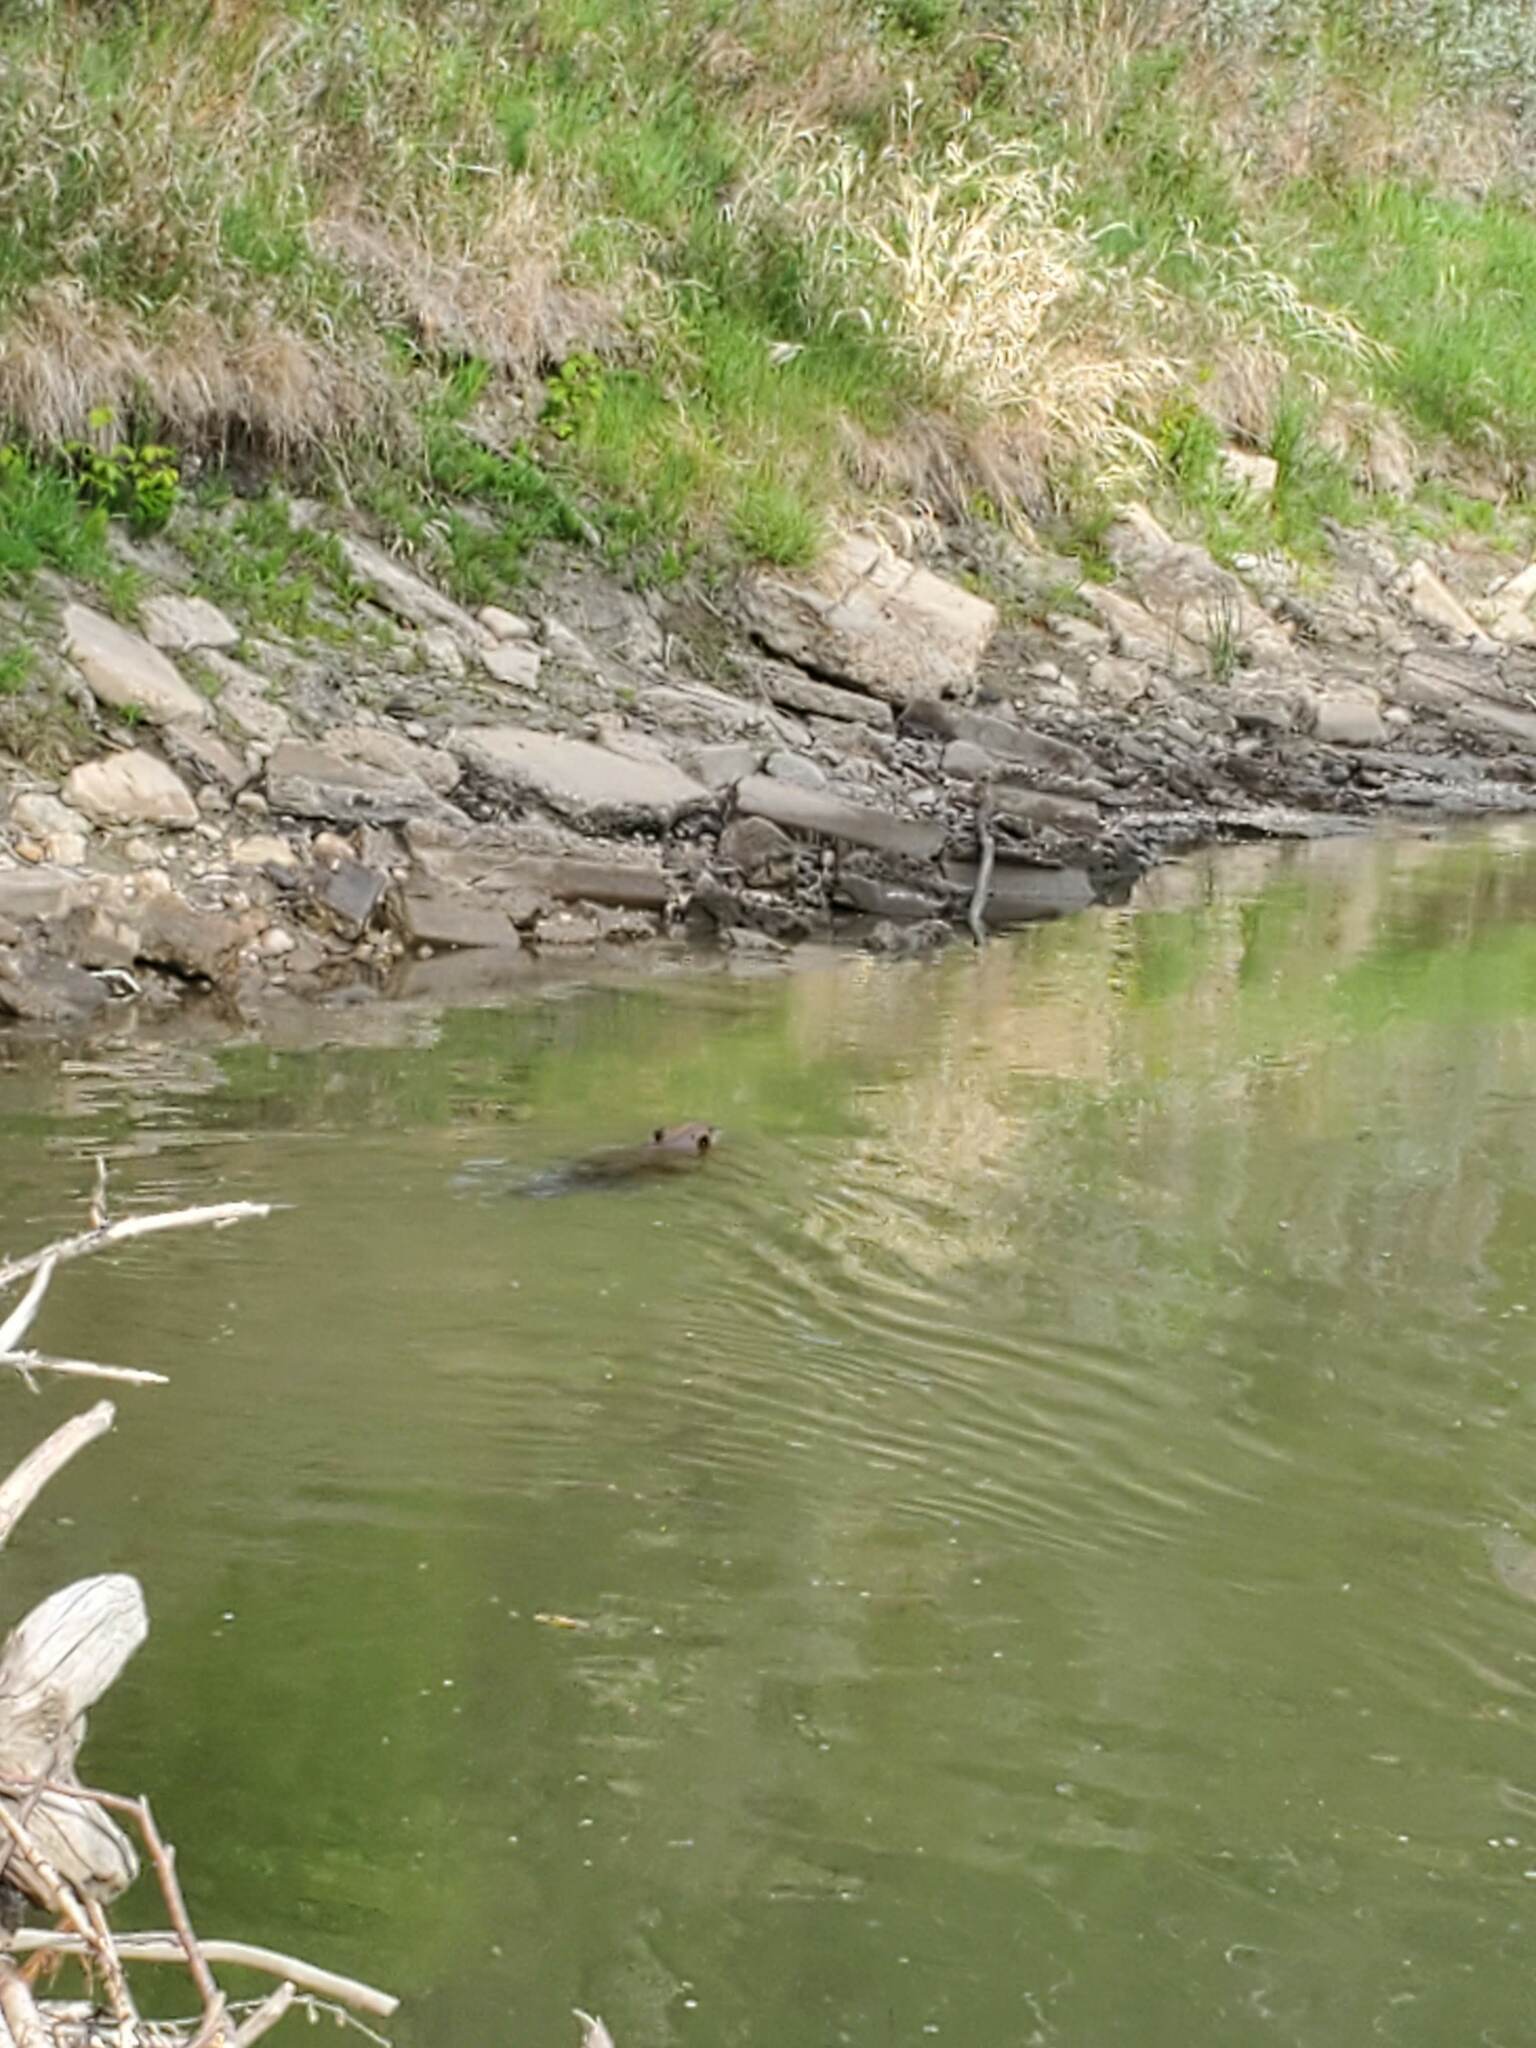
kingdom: Animalia
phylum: Chordata
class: Mammalia
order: Rodentia
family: Castoridae
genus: Castor
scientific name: Castor canadensis
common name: American beaver
